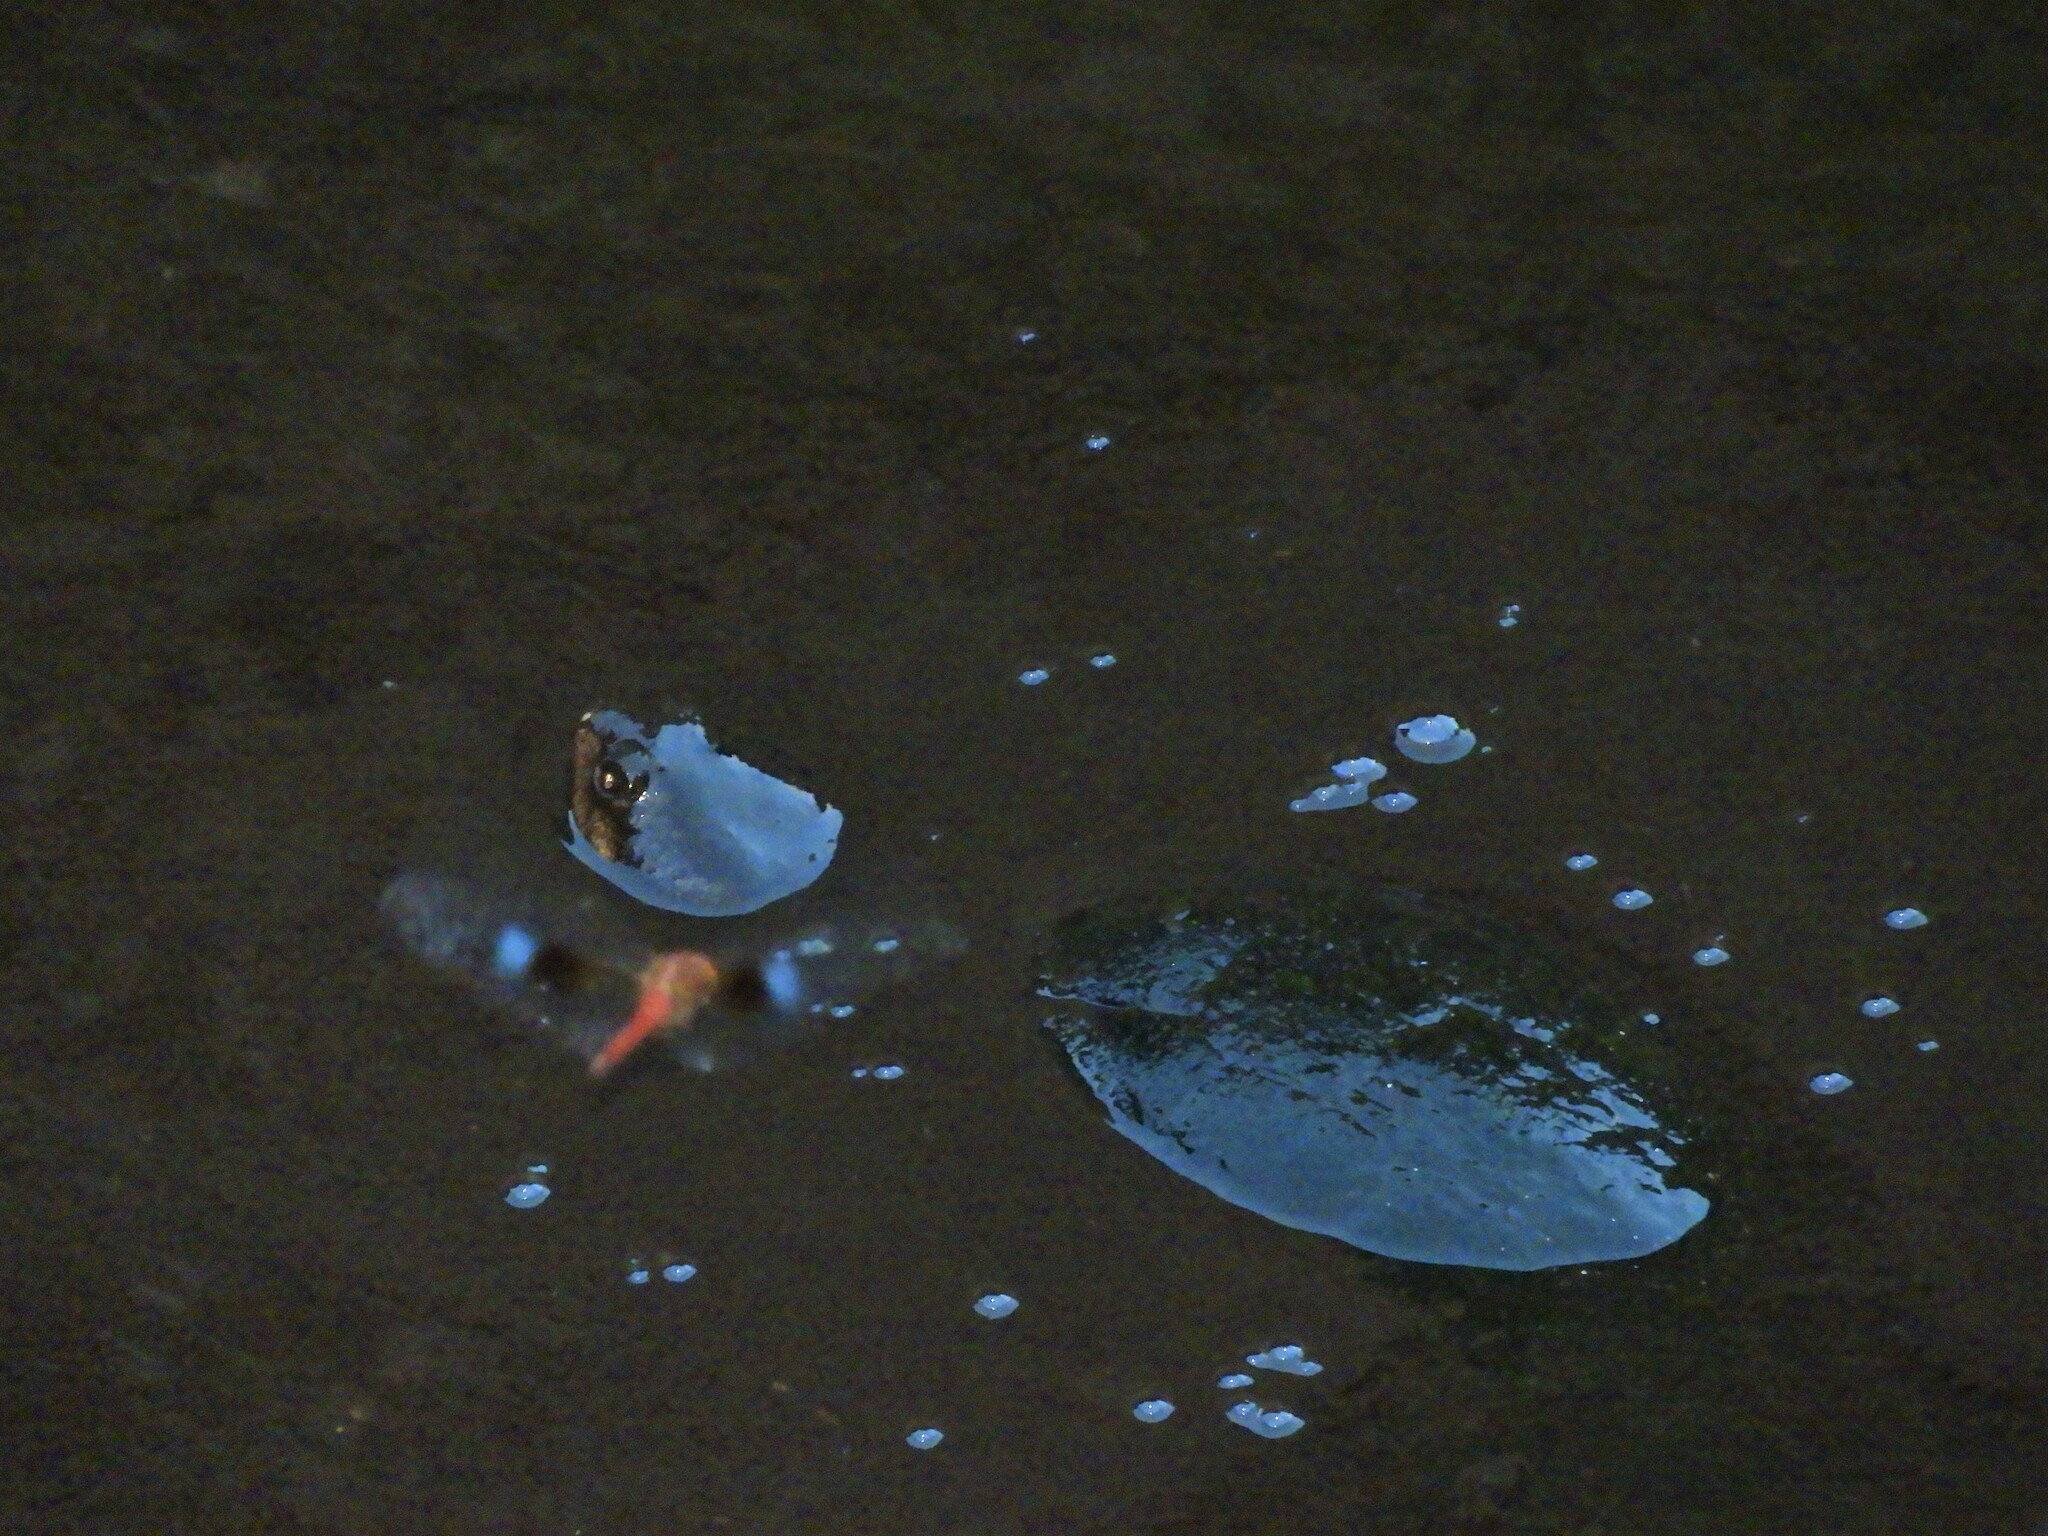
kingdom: Animalia
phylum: Chordata
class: Testudines
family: Pelomedusidae
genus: Pelusios
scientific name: Pelusios castanoides
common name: Yellow-bellied mud turtle
